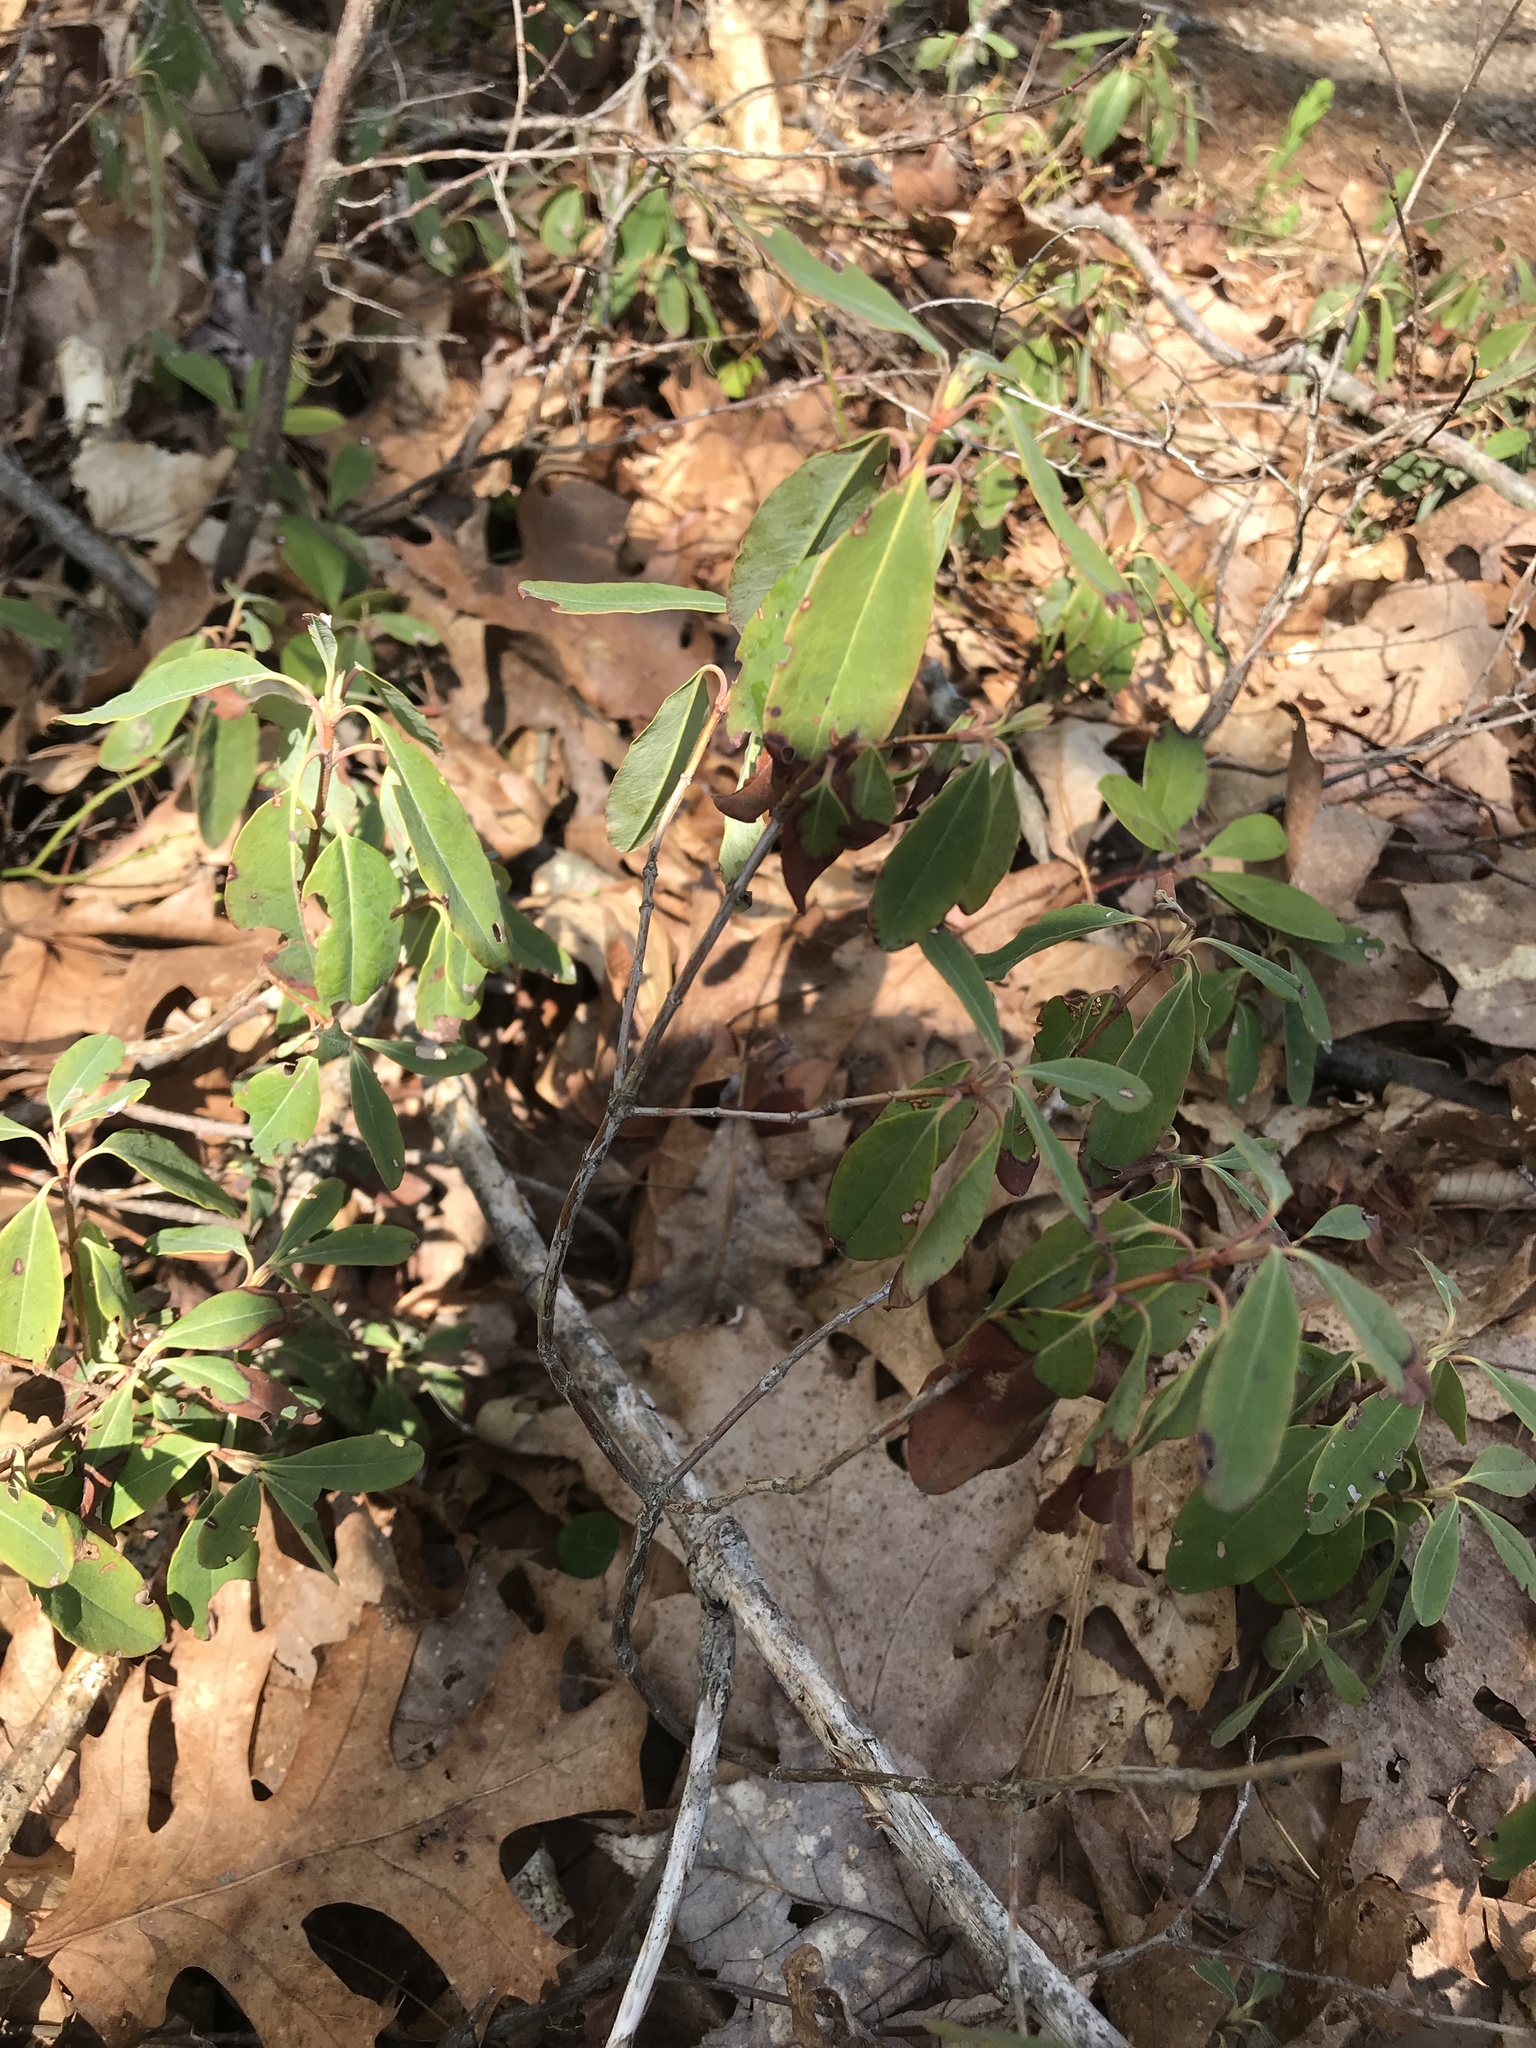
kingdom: Plantae
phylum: Tracheophyta
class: Magnoliopsida
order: Ericales
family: Ericaceae
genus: Kalmia
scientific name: Kalmia angustifolia
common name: Sheep-laurel
